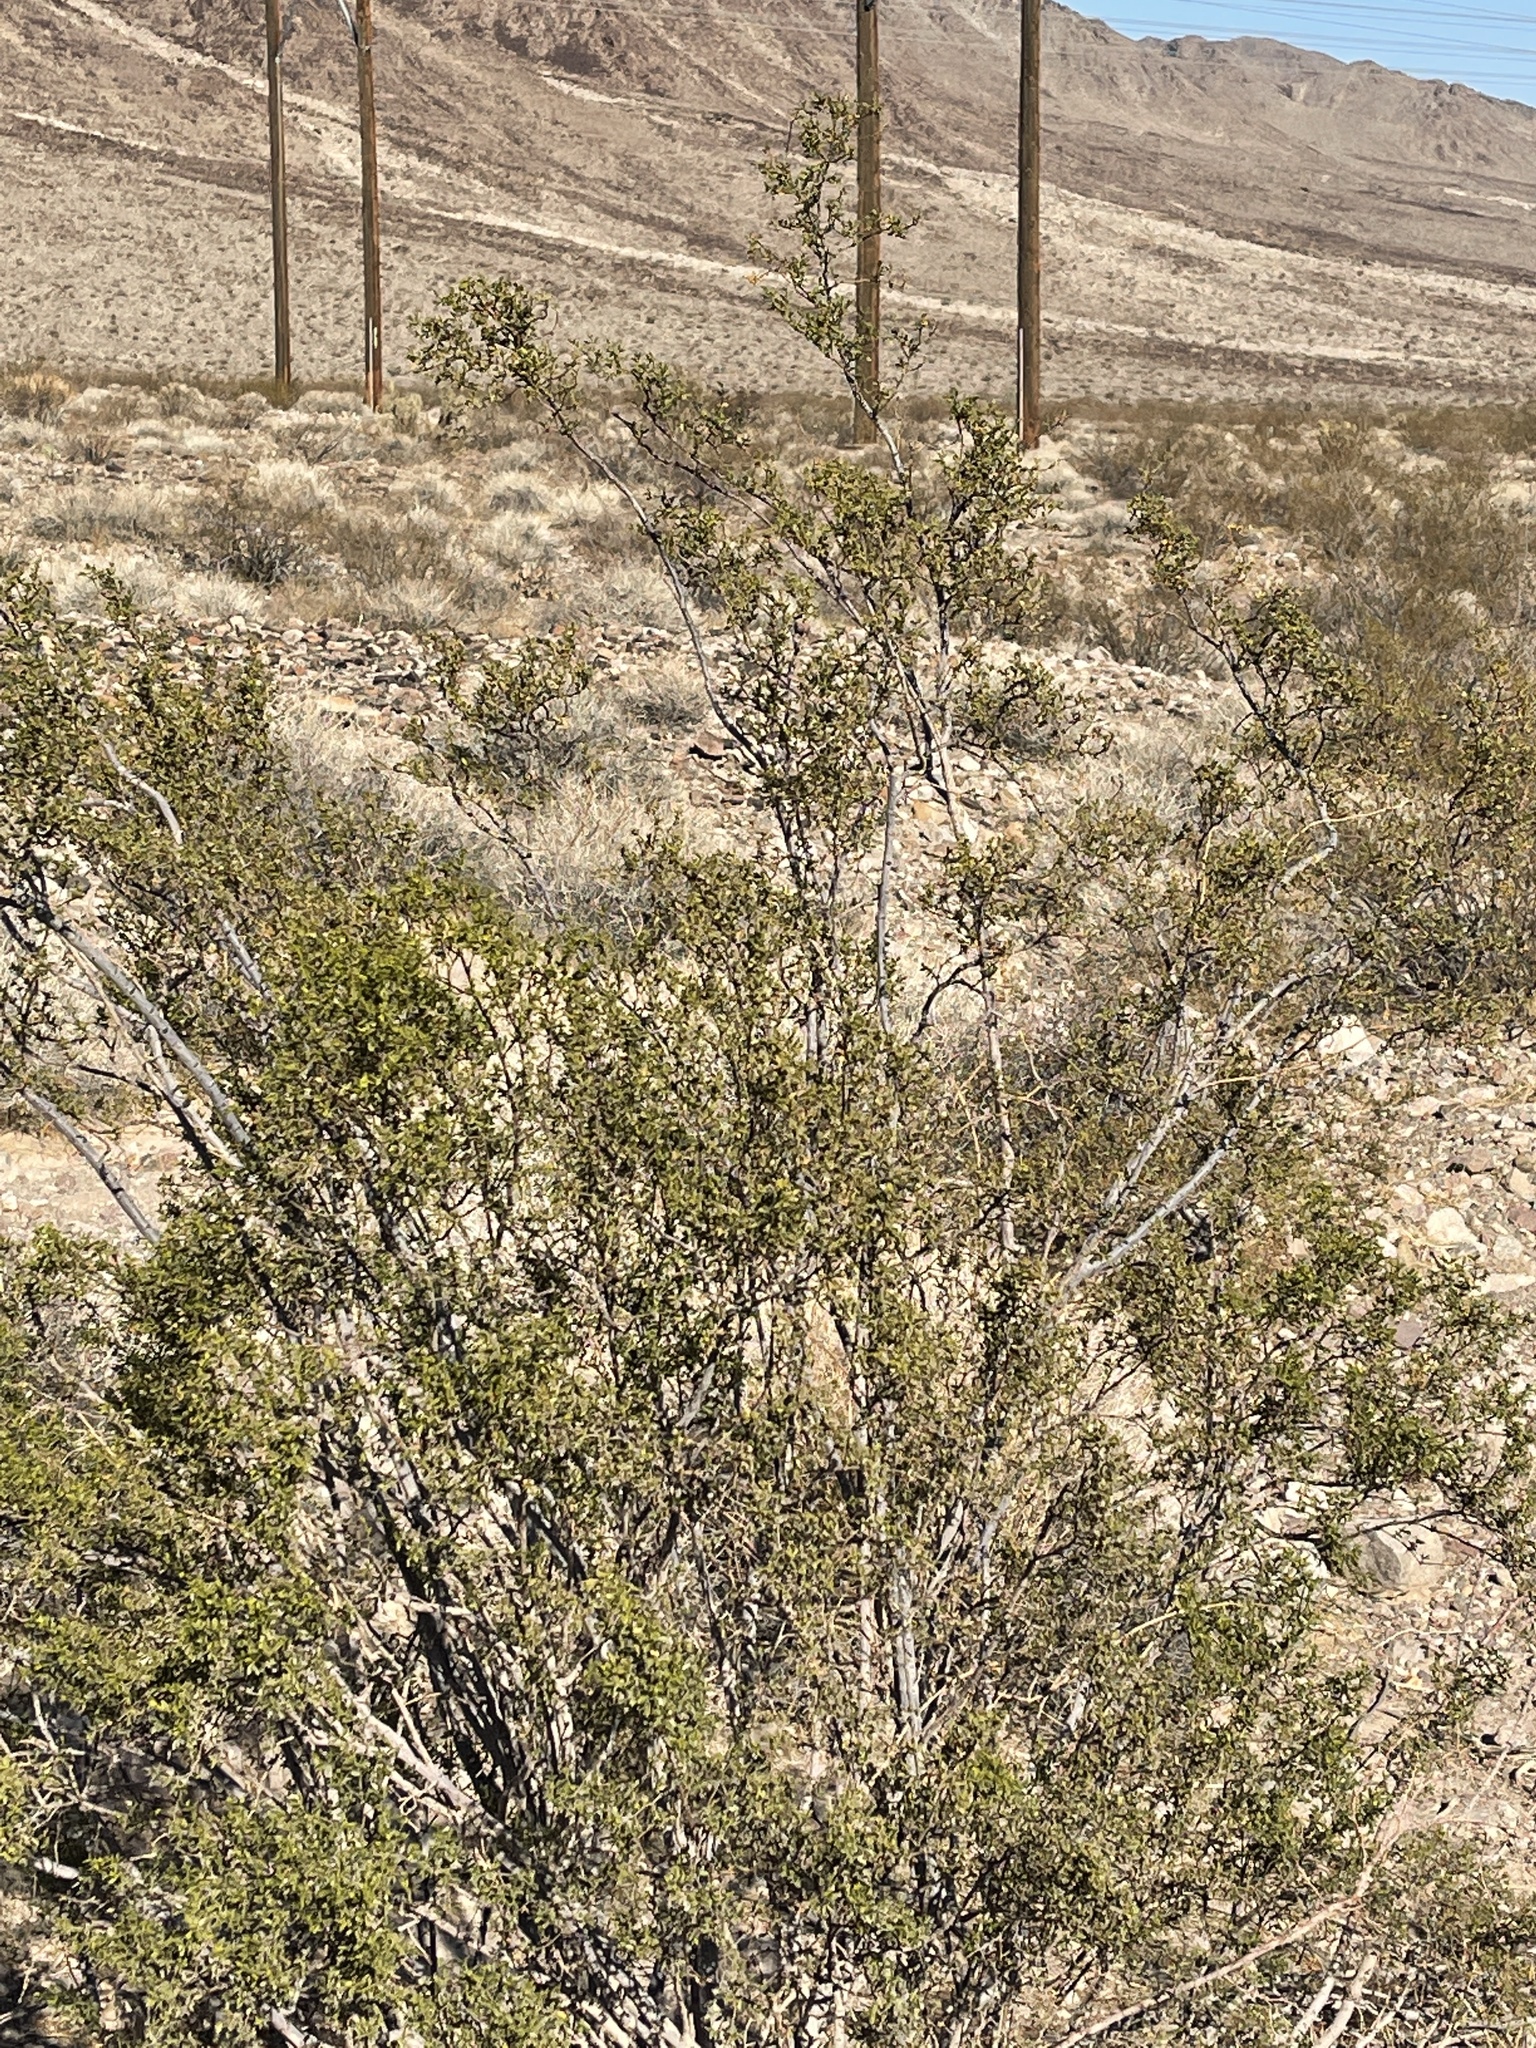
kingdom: Plantae
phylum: Tracheophyta
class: Magnoliopsida
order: Zygophyllales
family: Zygophyllaceae
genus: Larrea
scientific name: Larrea tridentata
